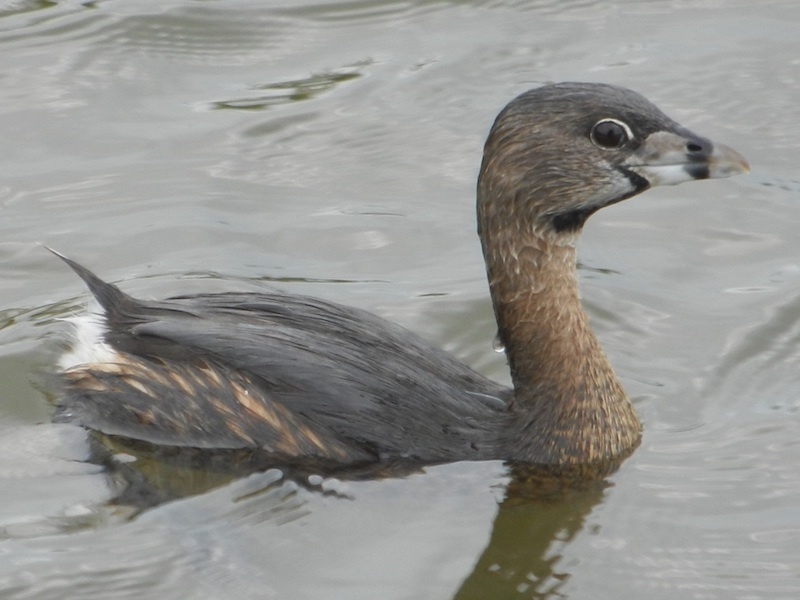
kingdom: Animalia
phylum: Chordata
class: Aves
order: Podicipediformes
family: Podicipedidae
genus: Podilymbus
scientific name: Podilymbus podiceps
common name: Pied-billed grebe
